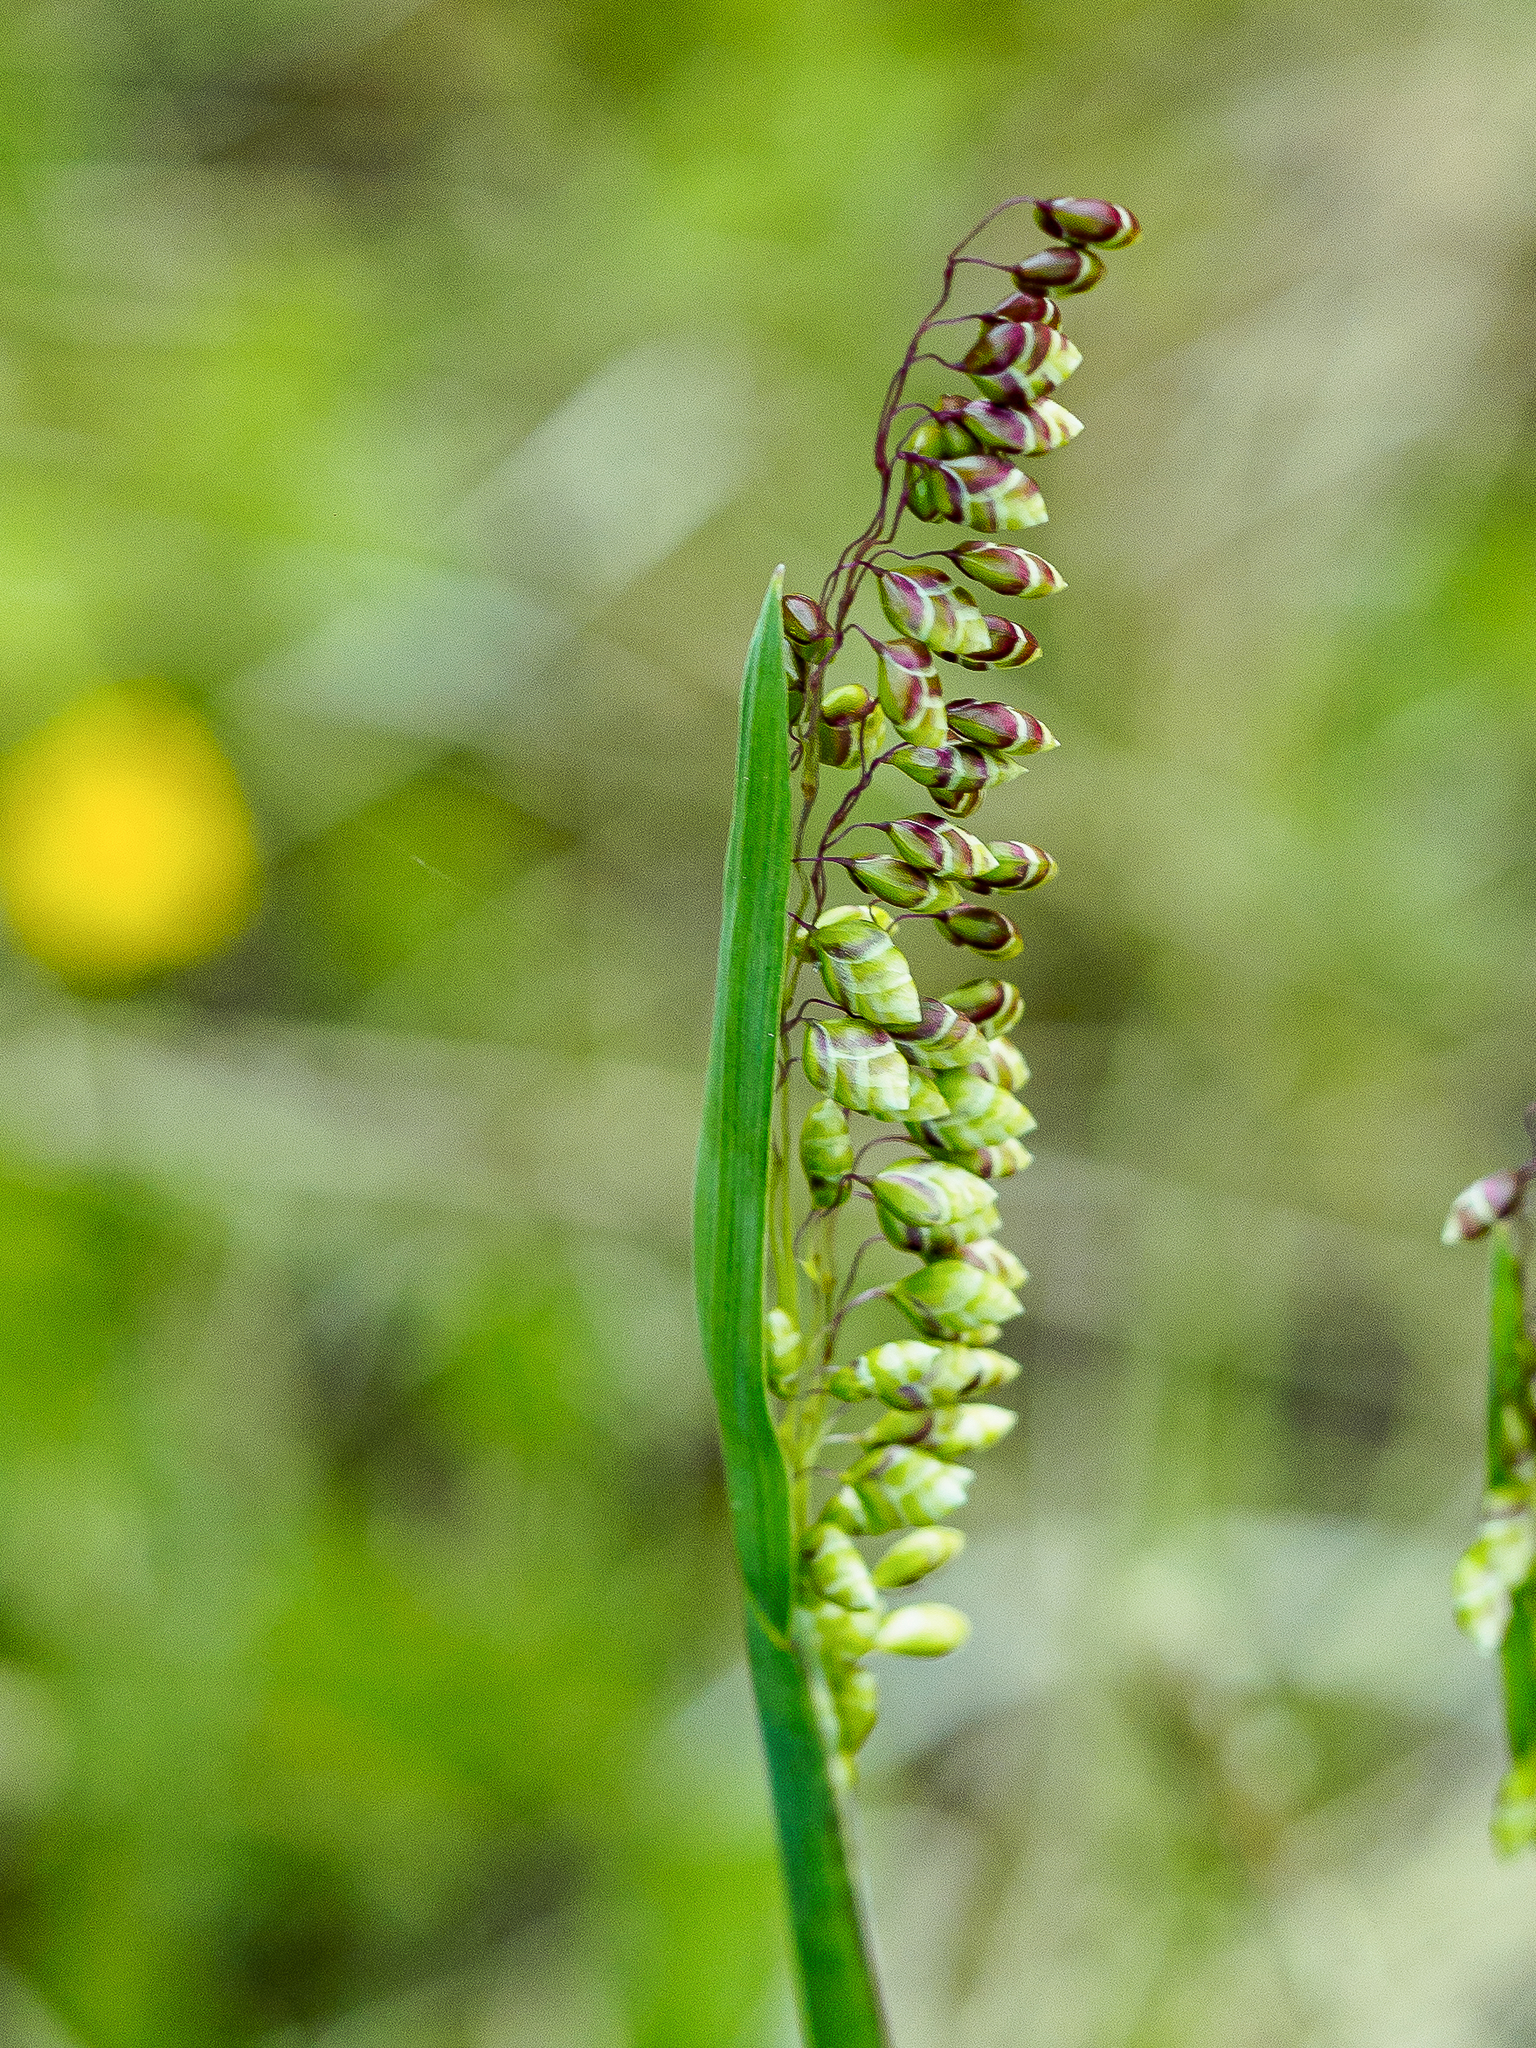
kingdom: Plantae
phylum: Tracheophyta
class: Liliopsida
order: Poales
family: Poaceae
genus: Briza
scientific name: Briza media
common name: Quaking grass
